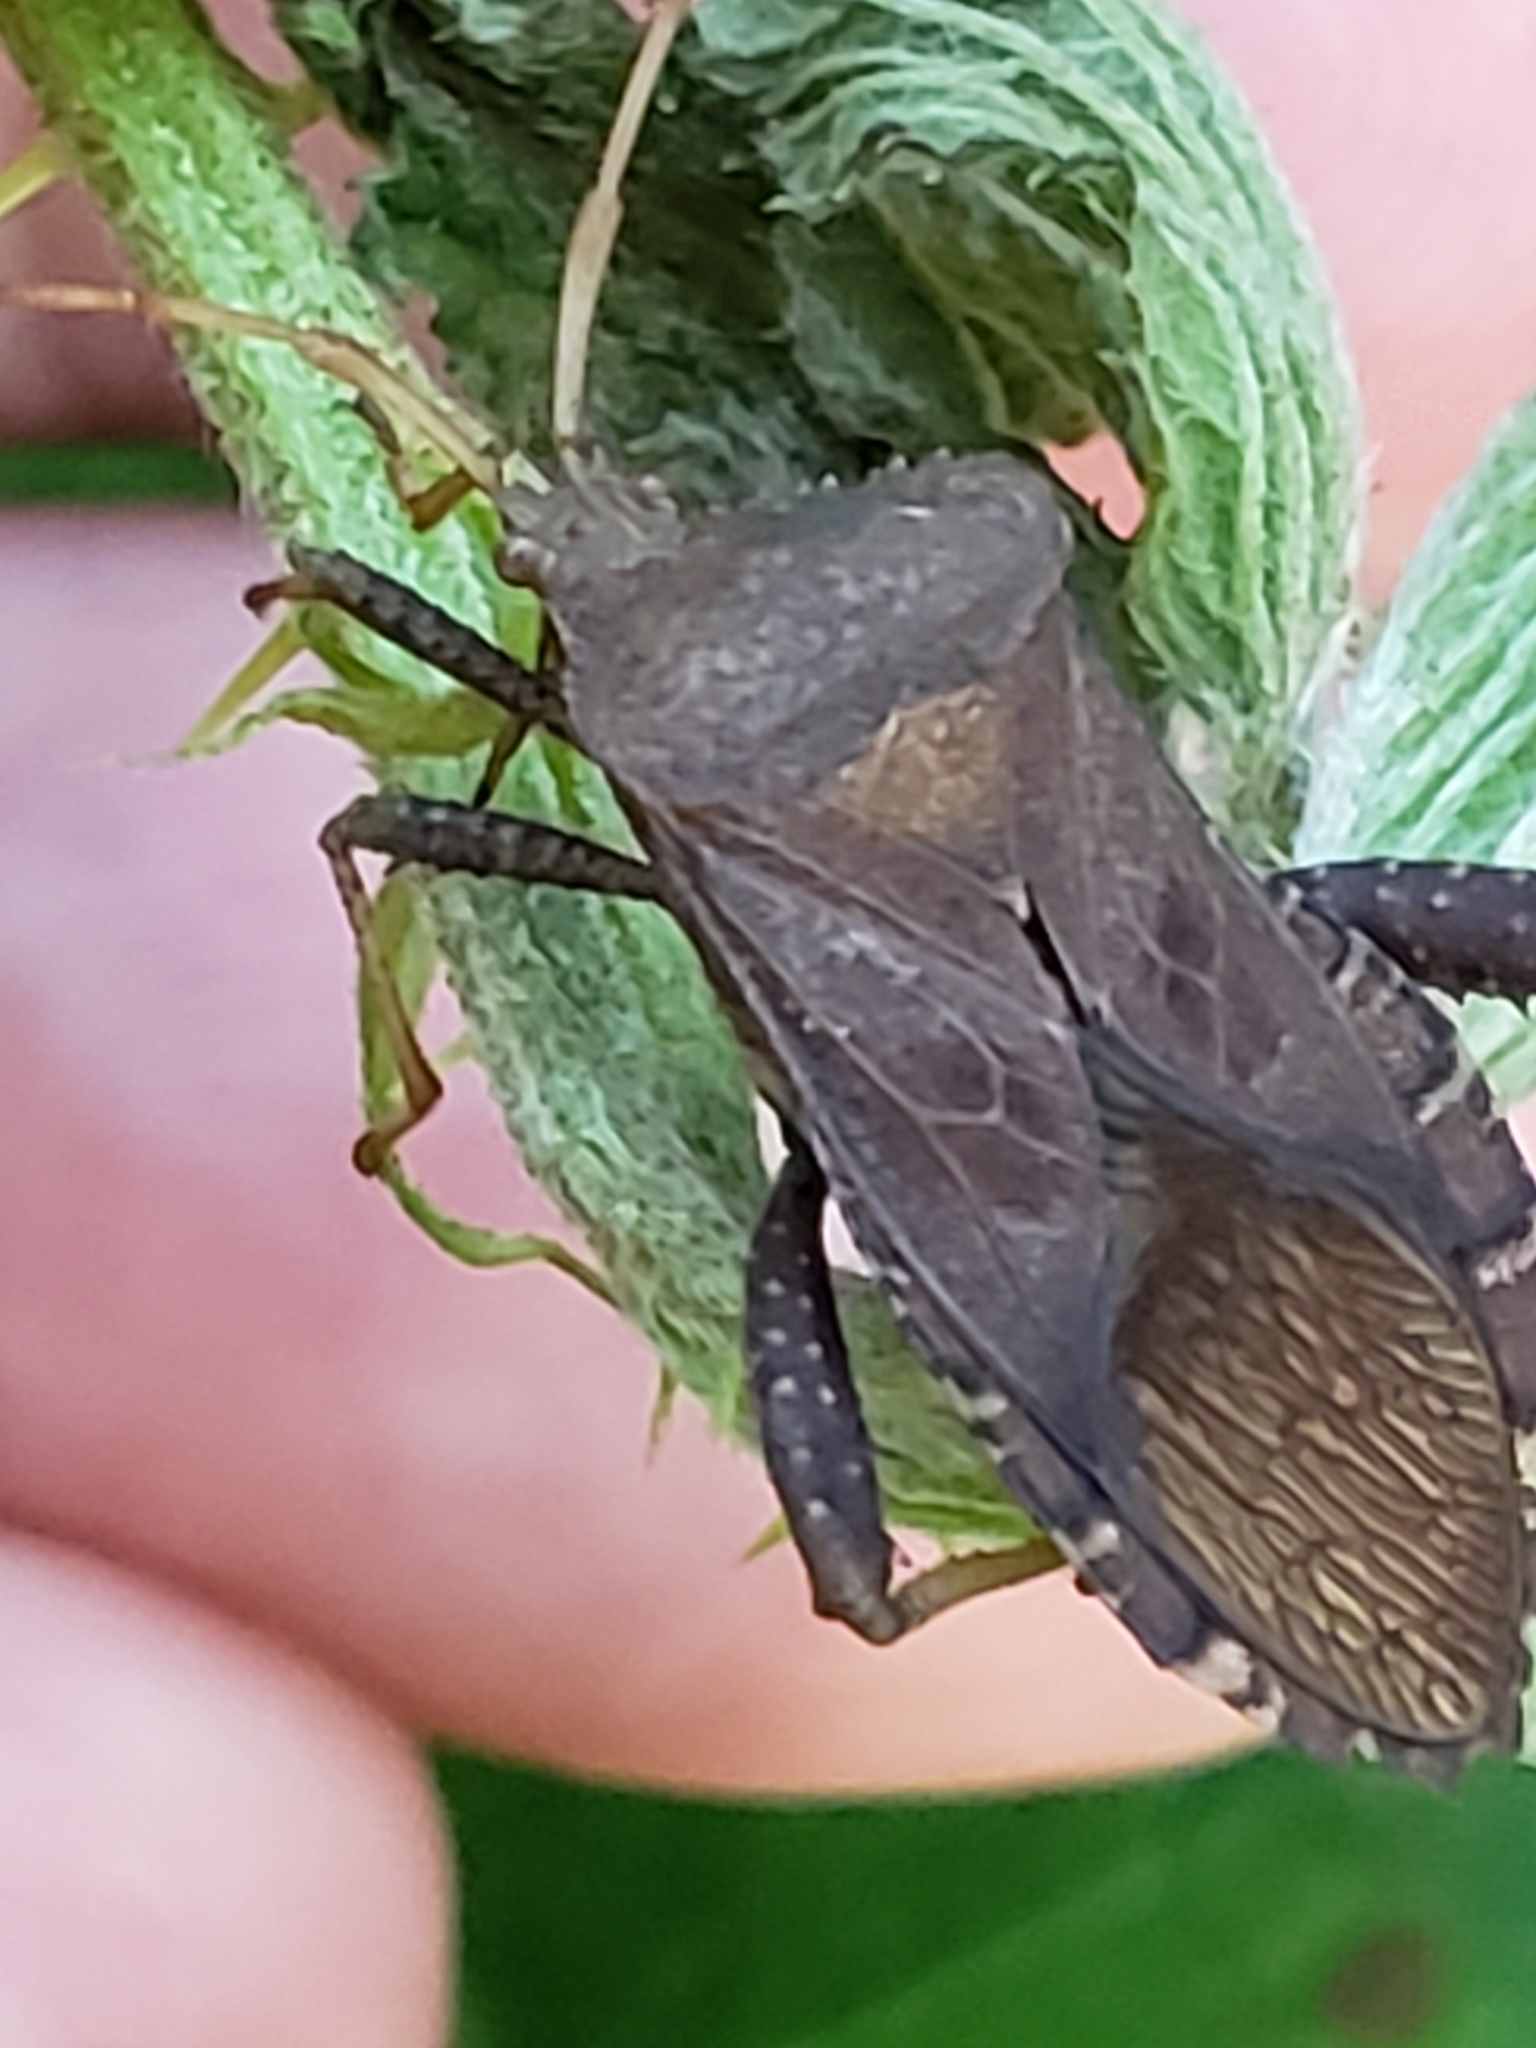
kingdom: Animalia
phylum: Arthropoda
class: Insecta
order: Hemiptera
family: Coreidae
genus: Euthochtha
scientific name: Euthochtha galeator
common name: Helmeted squash bug
